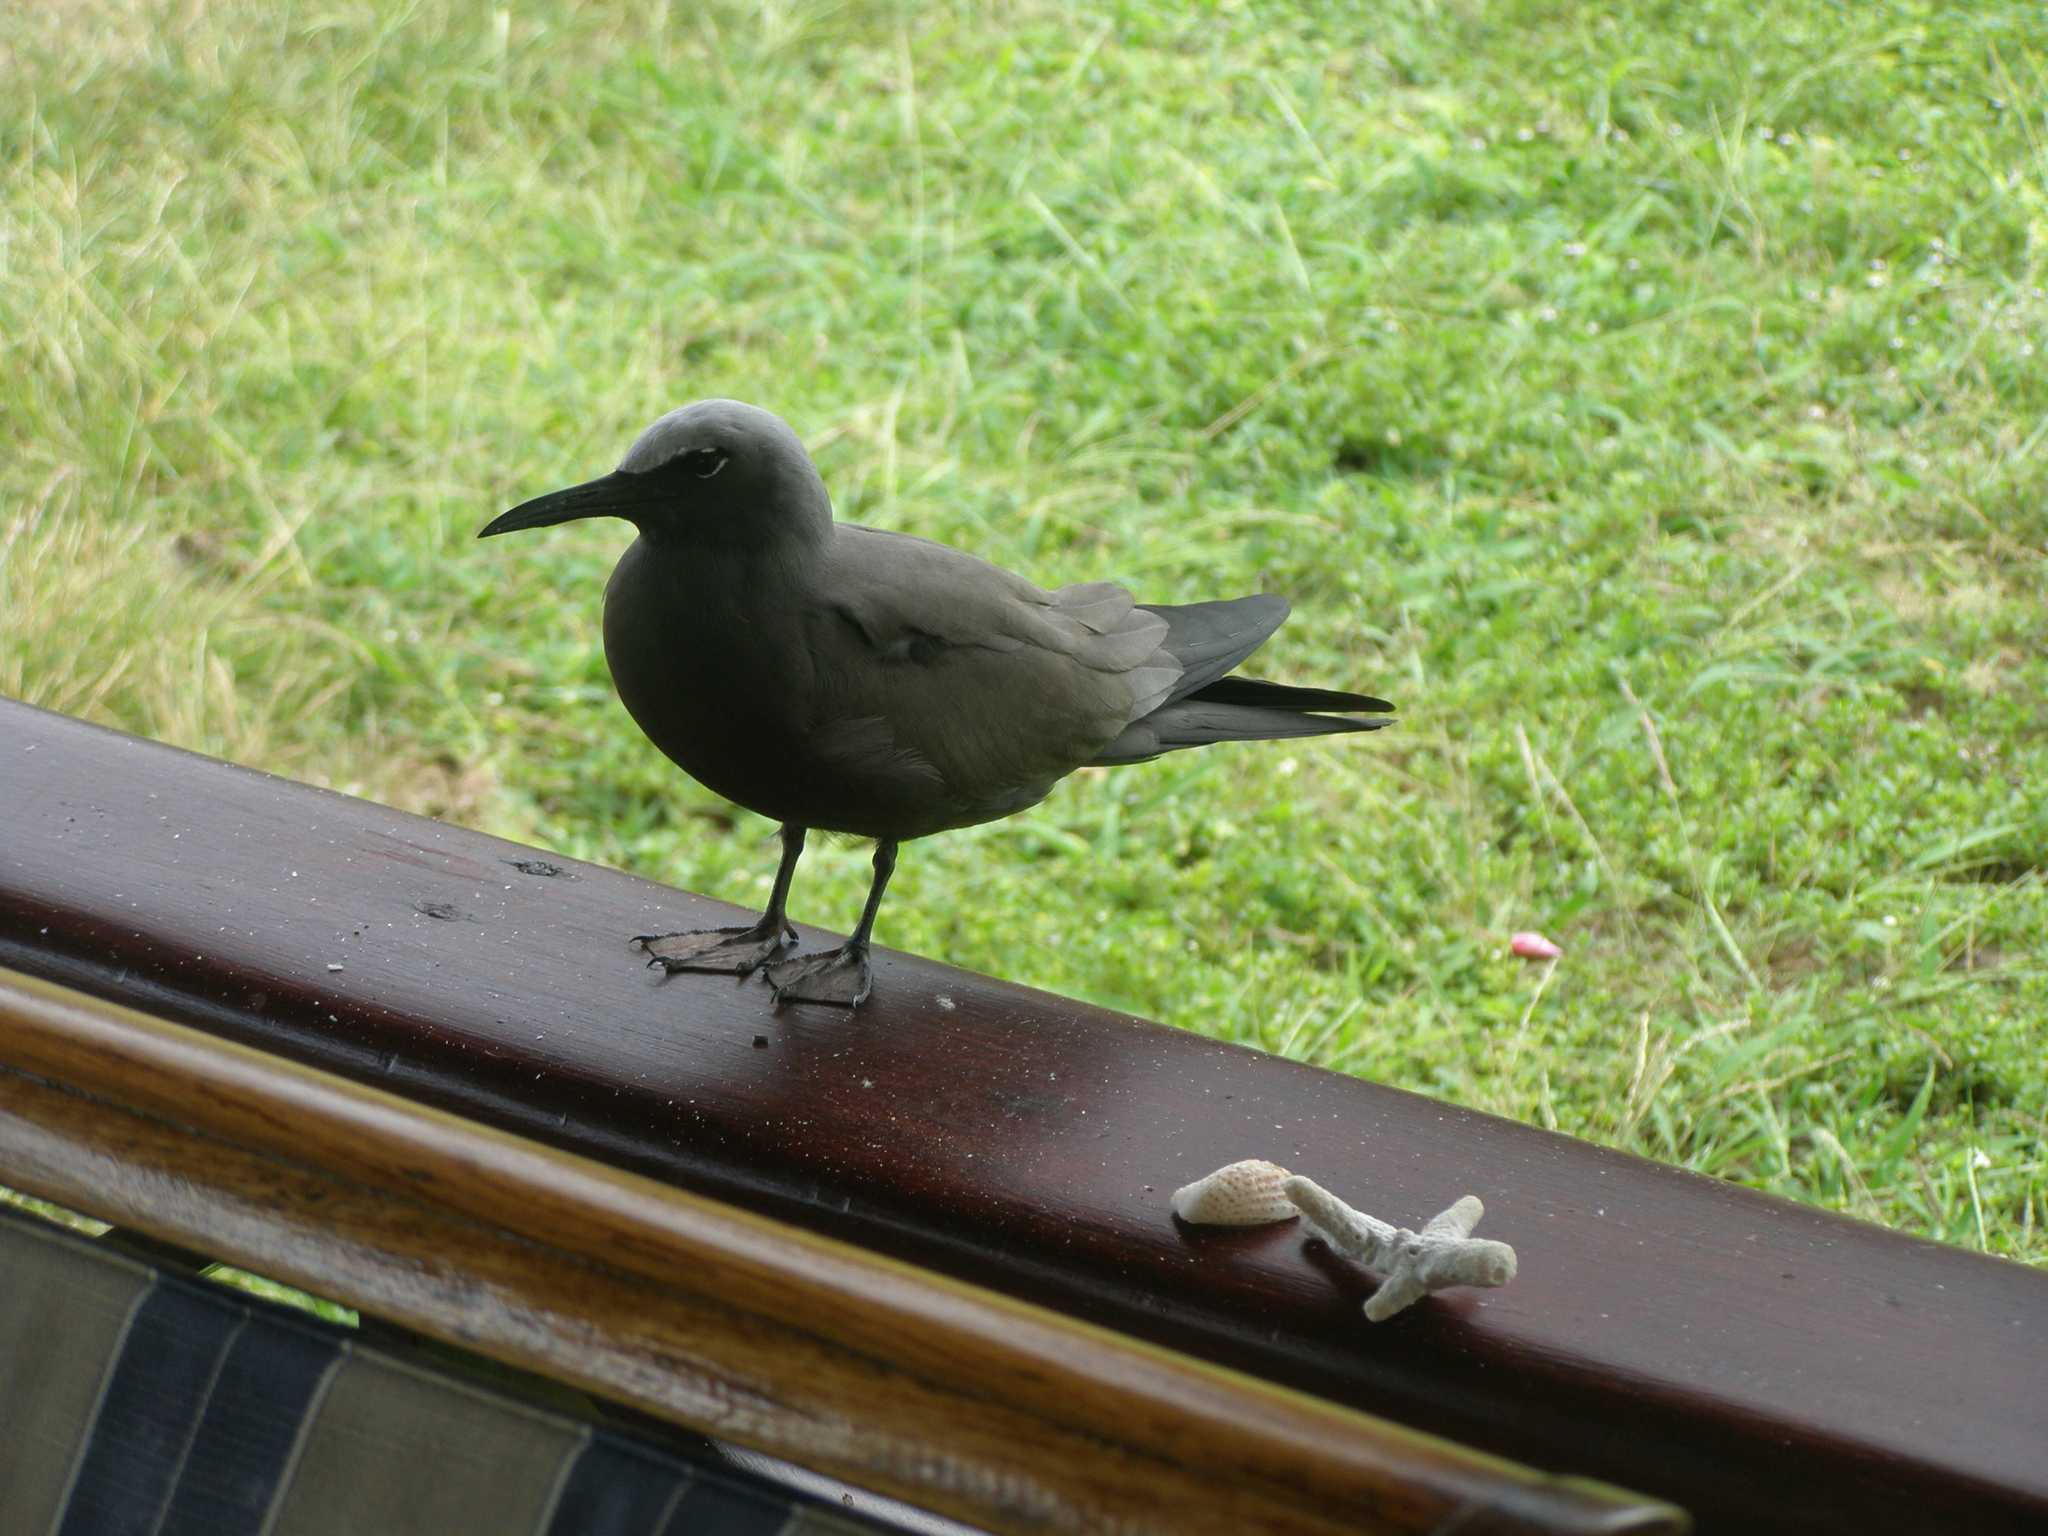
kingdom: Animalia
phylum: Chordata
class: Aves
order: Charadriiformes
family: Laridae
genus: Anous
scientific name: Anous stolidus
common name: Brown noddy
